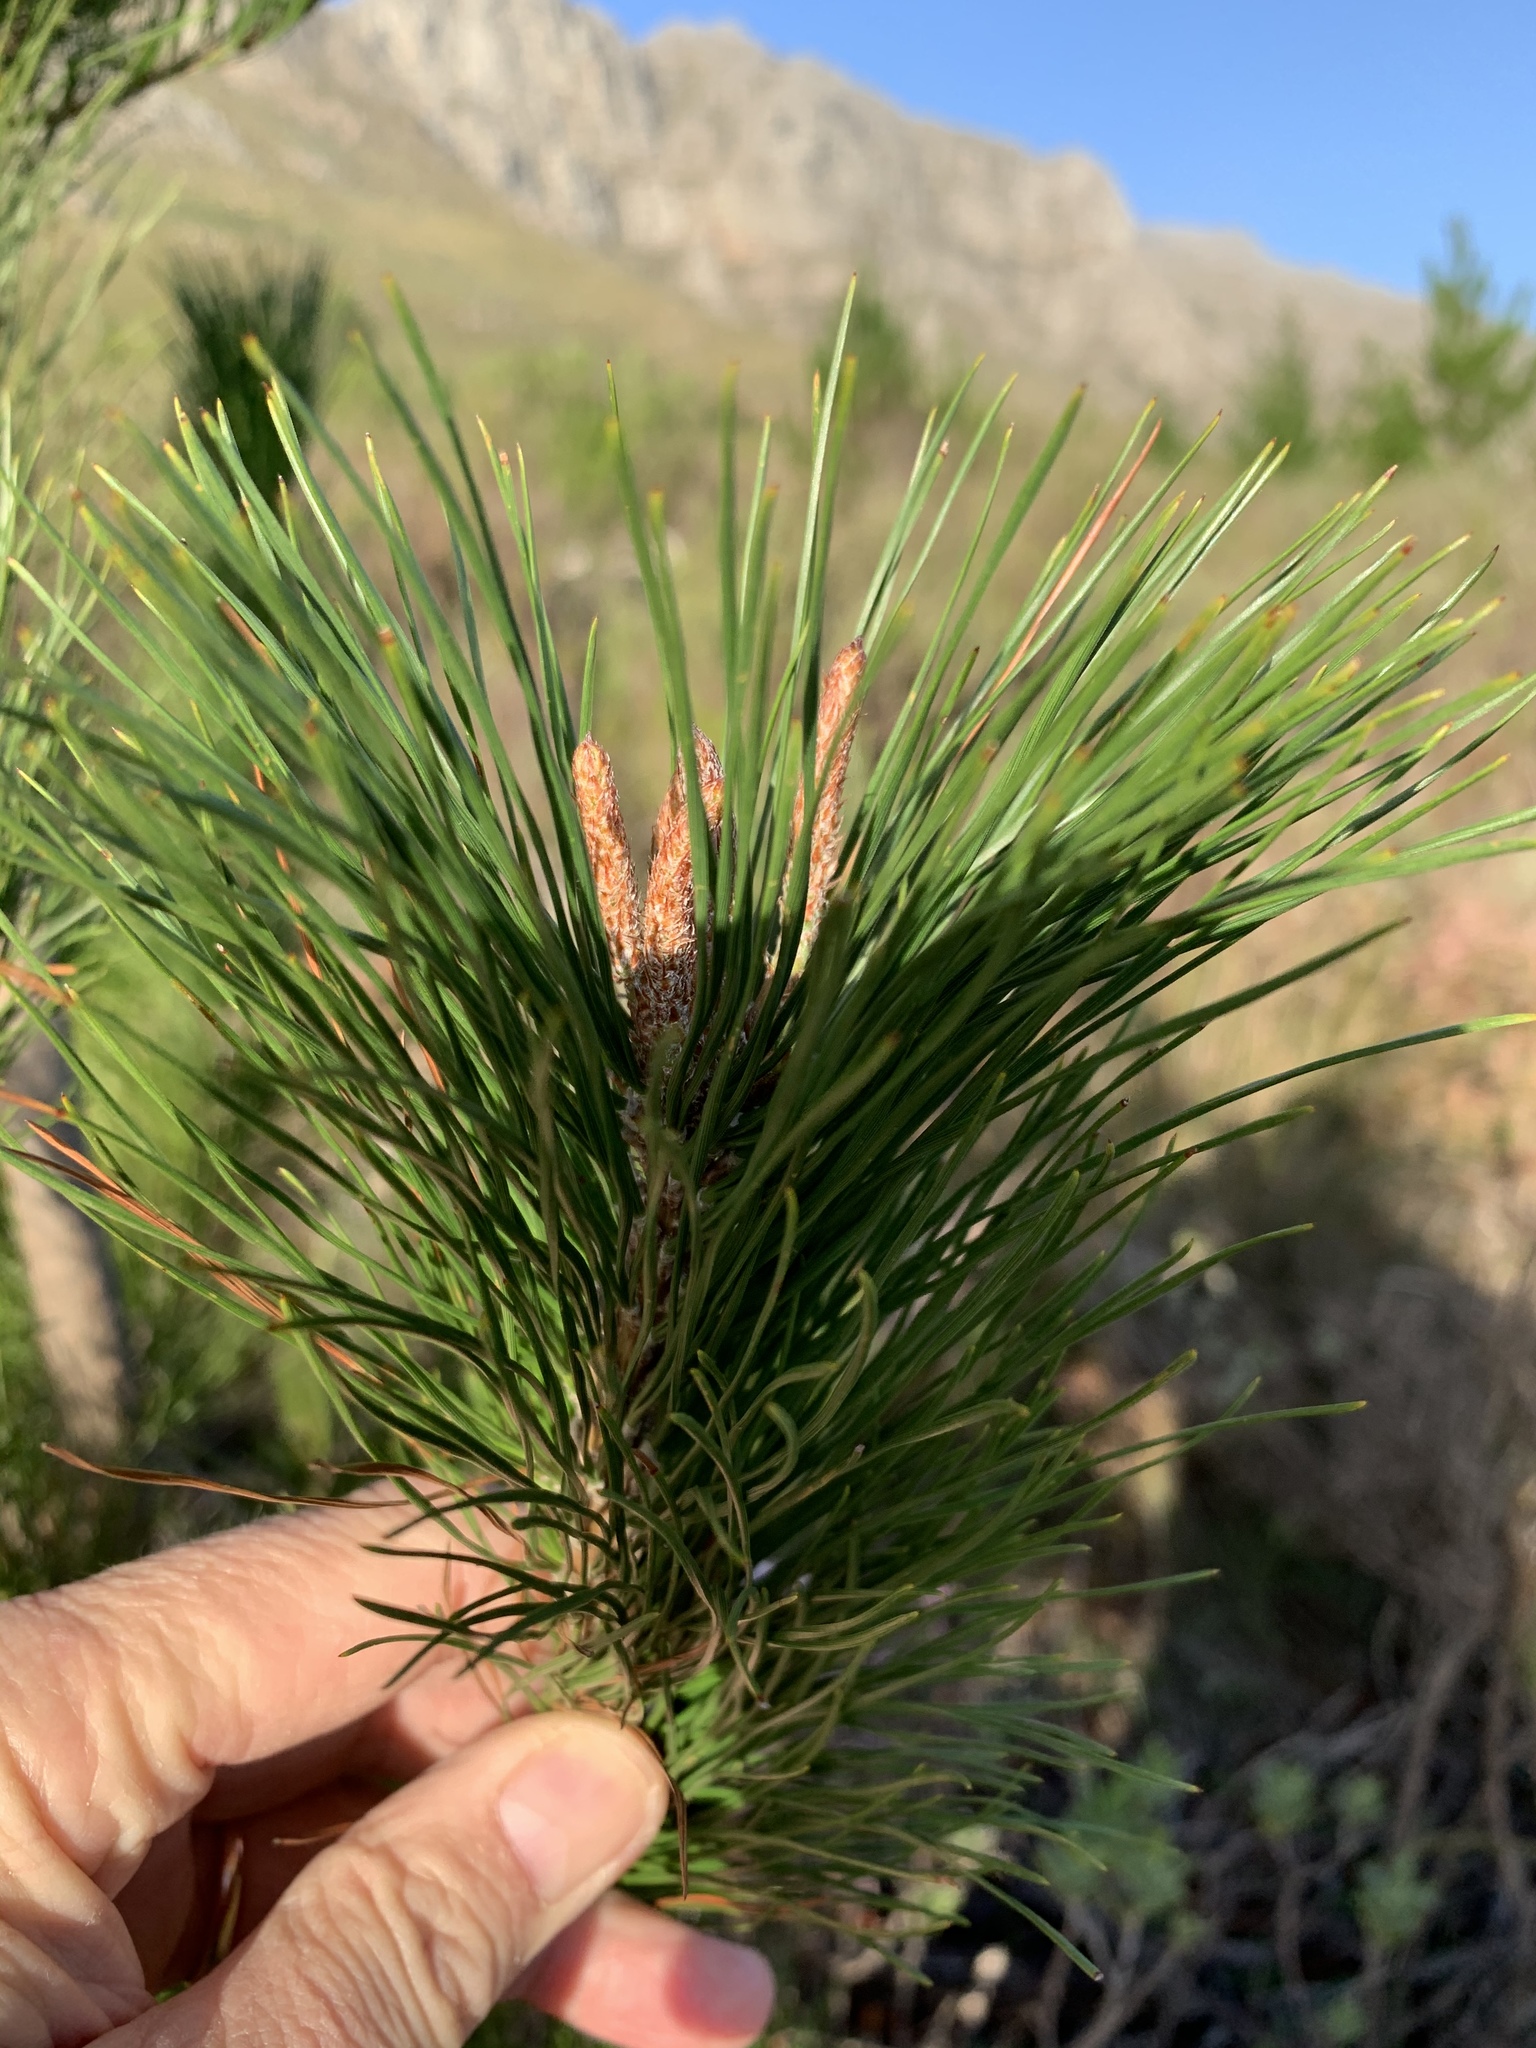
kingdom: Plantae
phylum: Tracheophyta
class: Pinopsida
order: Pinales
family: Pinaceae
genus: Pinus
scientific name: Pinus radiata
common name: Monterey pine
